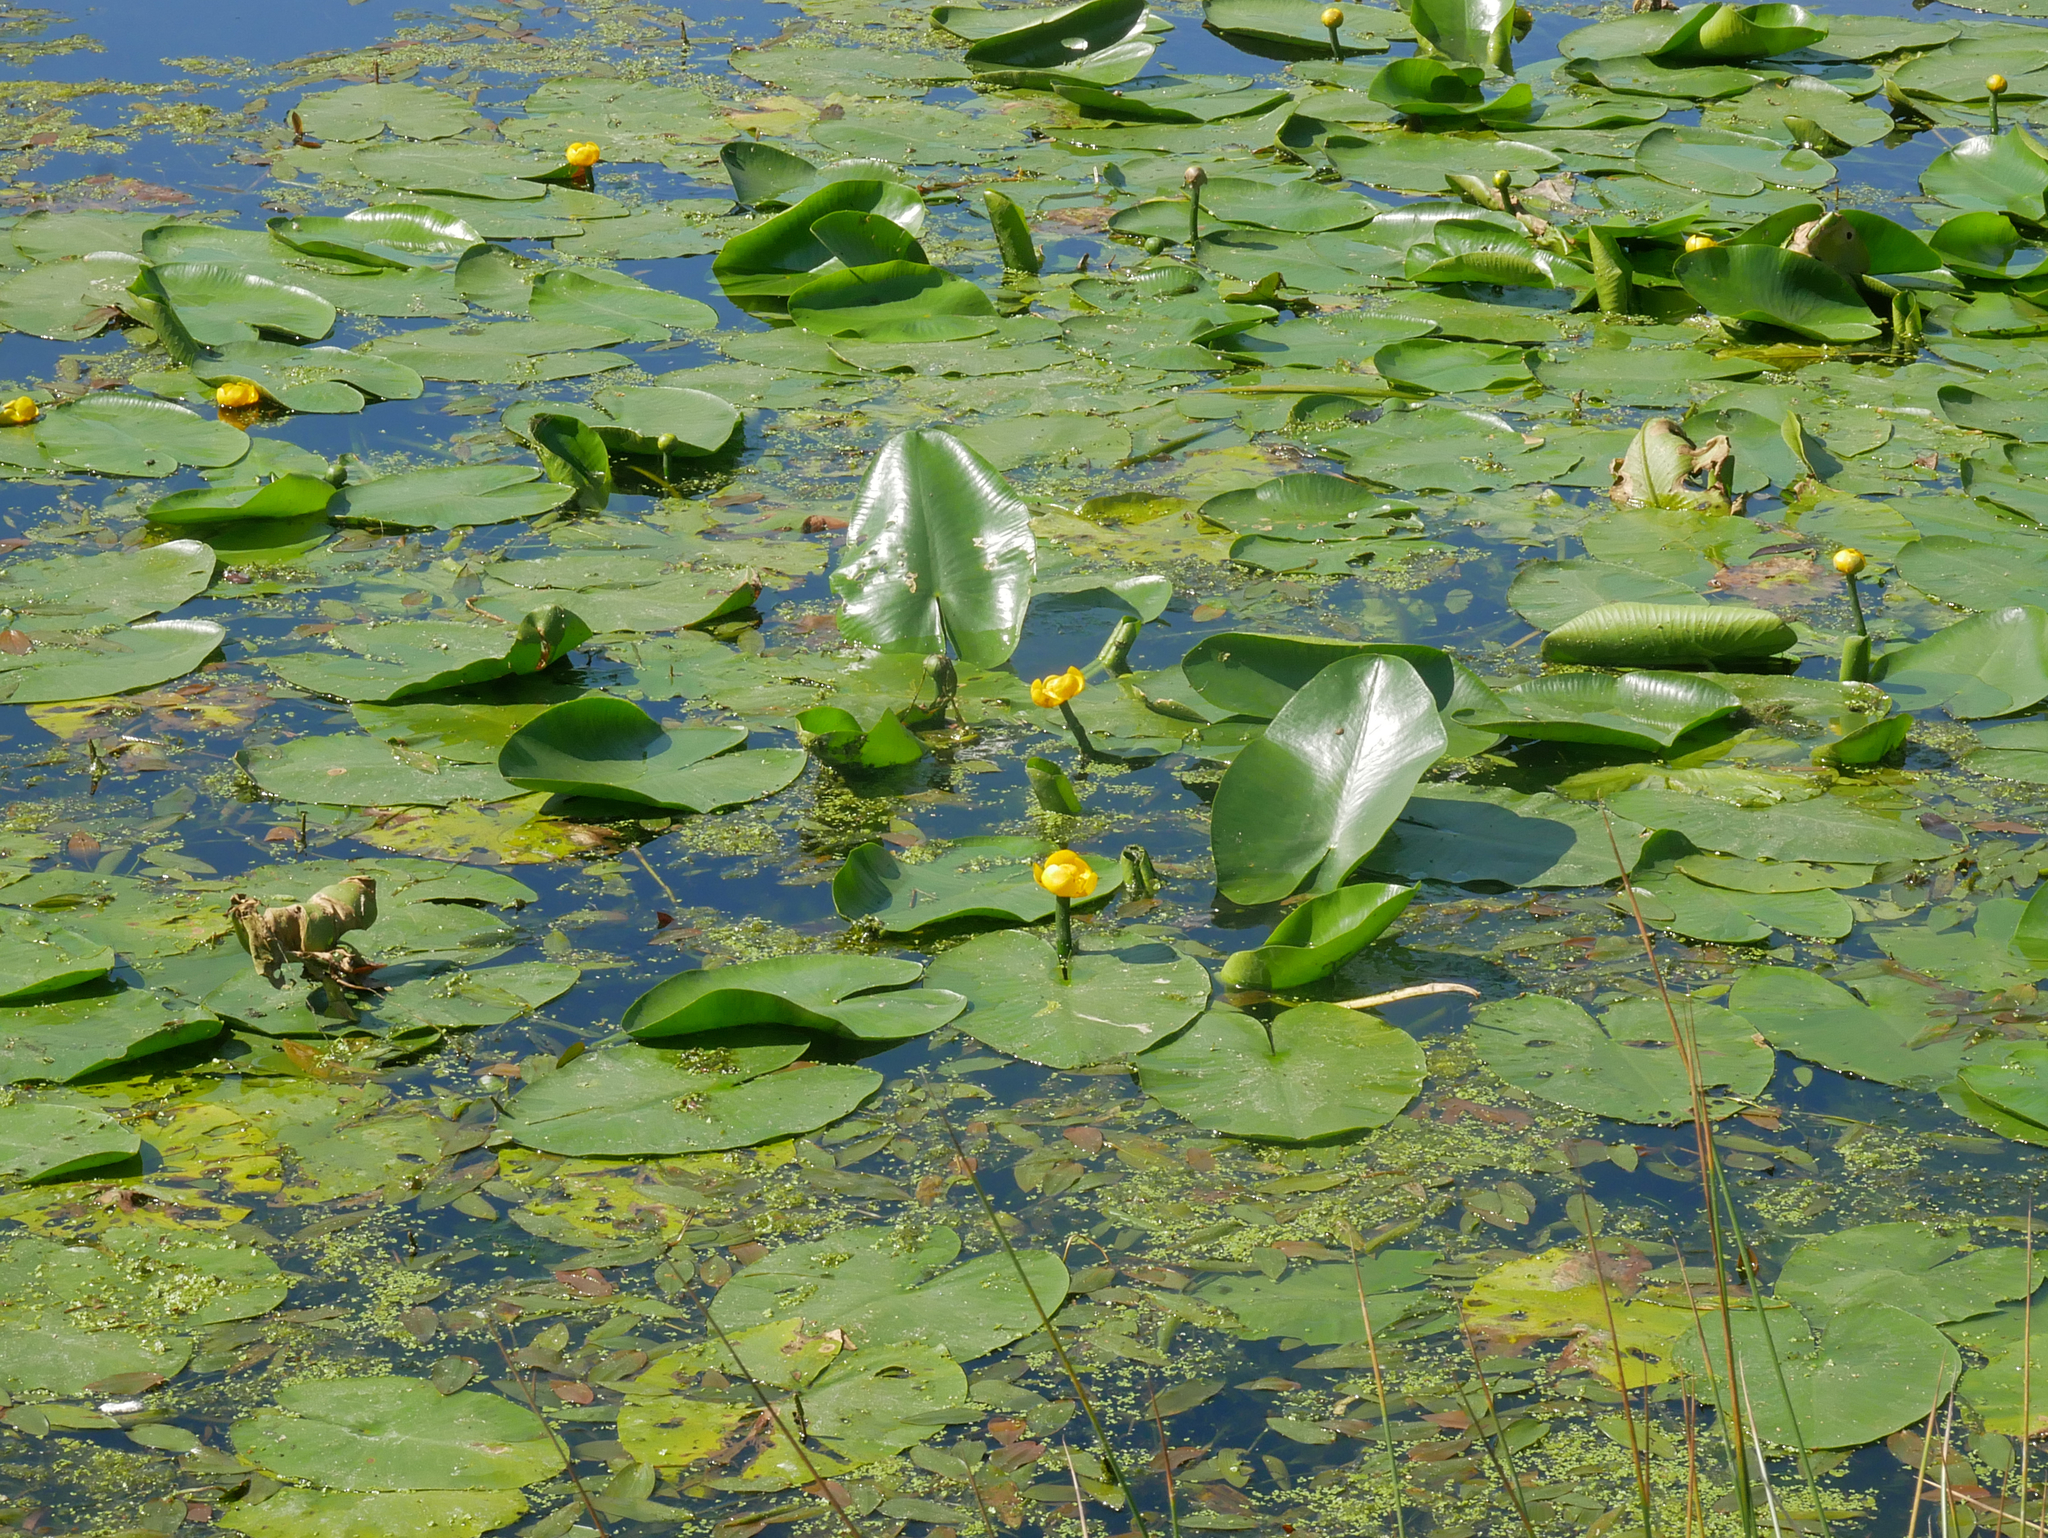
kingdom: Plantae
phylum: Tracheophyta
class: Magnoliopsida
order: Nymphaeales
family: Nymphaeaceae
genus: Nuphar
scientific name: Nuphar lutea
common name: Yellow water-lily
